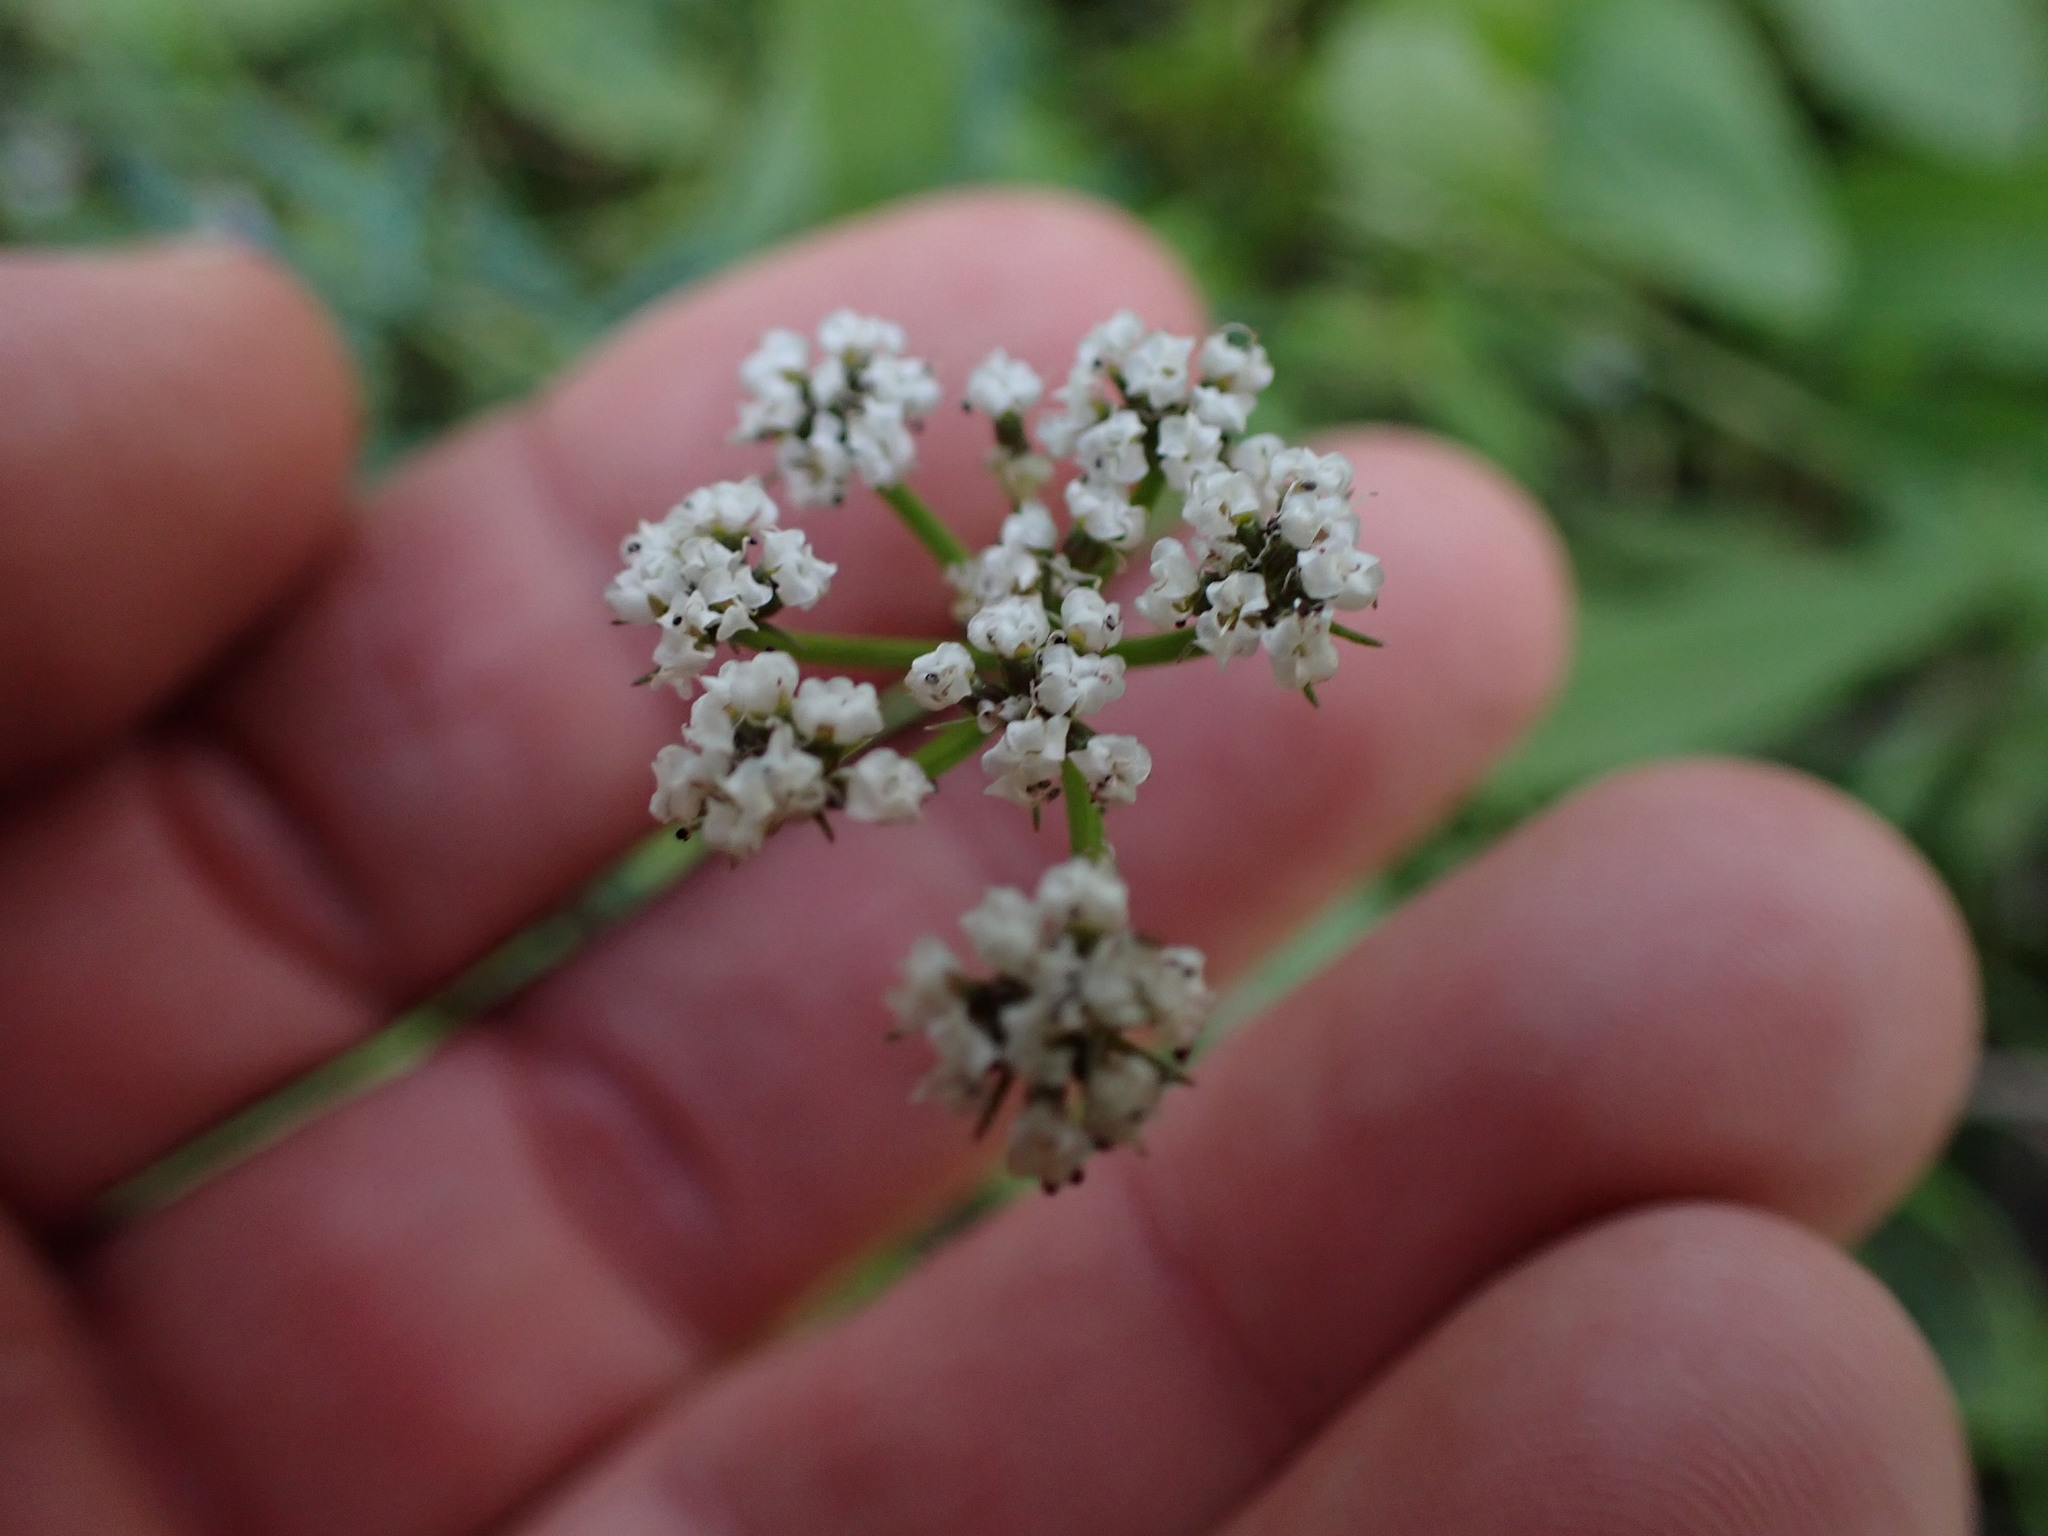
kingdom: Plantae
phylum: Tracheophyta
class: Magnoliopsida
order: Apiales
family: Apiaceae
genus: Lomatium
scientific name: Lomatium geyeri
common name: Geyer's biscuitroot
